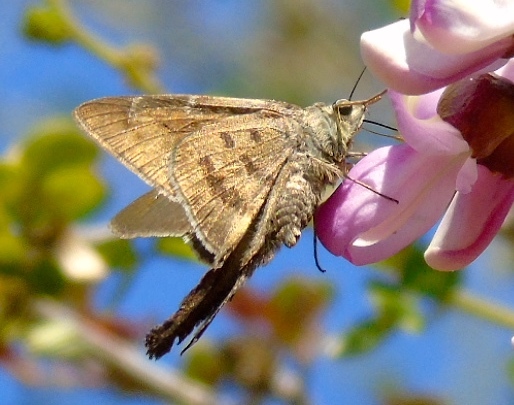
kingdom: Animalia
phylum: Arthropoda
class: Insecta
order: Lepidoptera
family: Hesperiidae
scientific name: Hesperiidae
